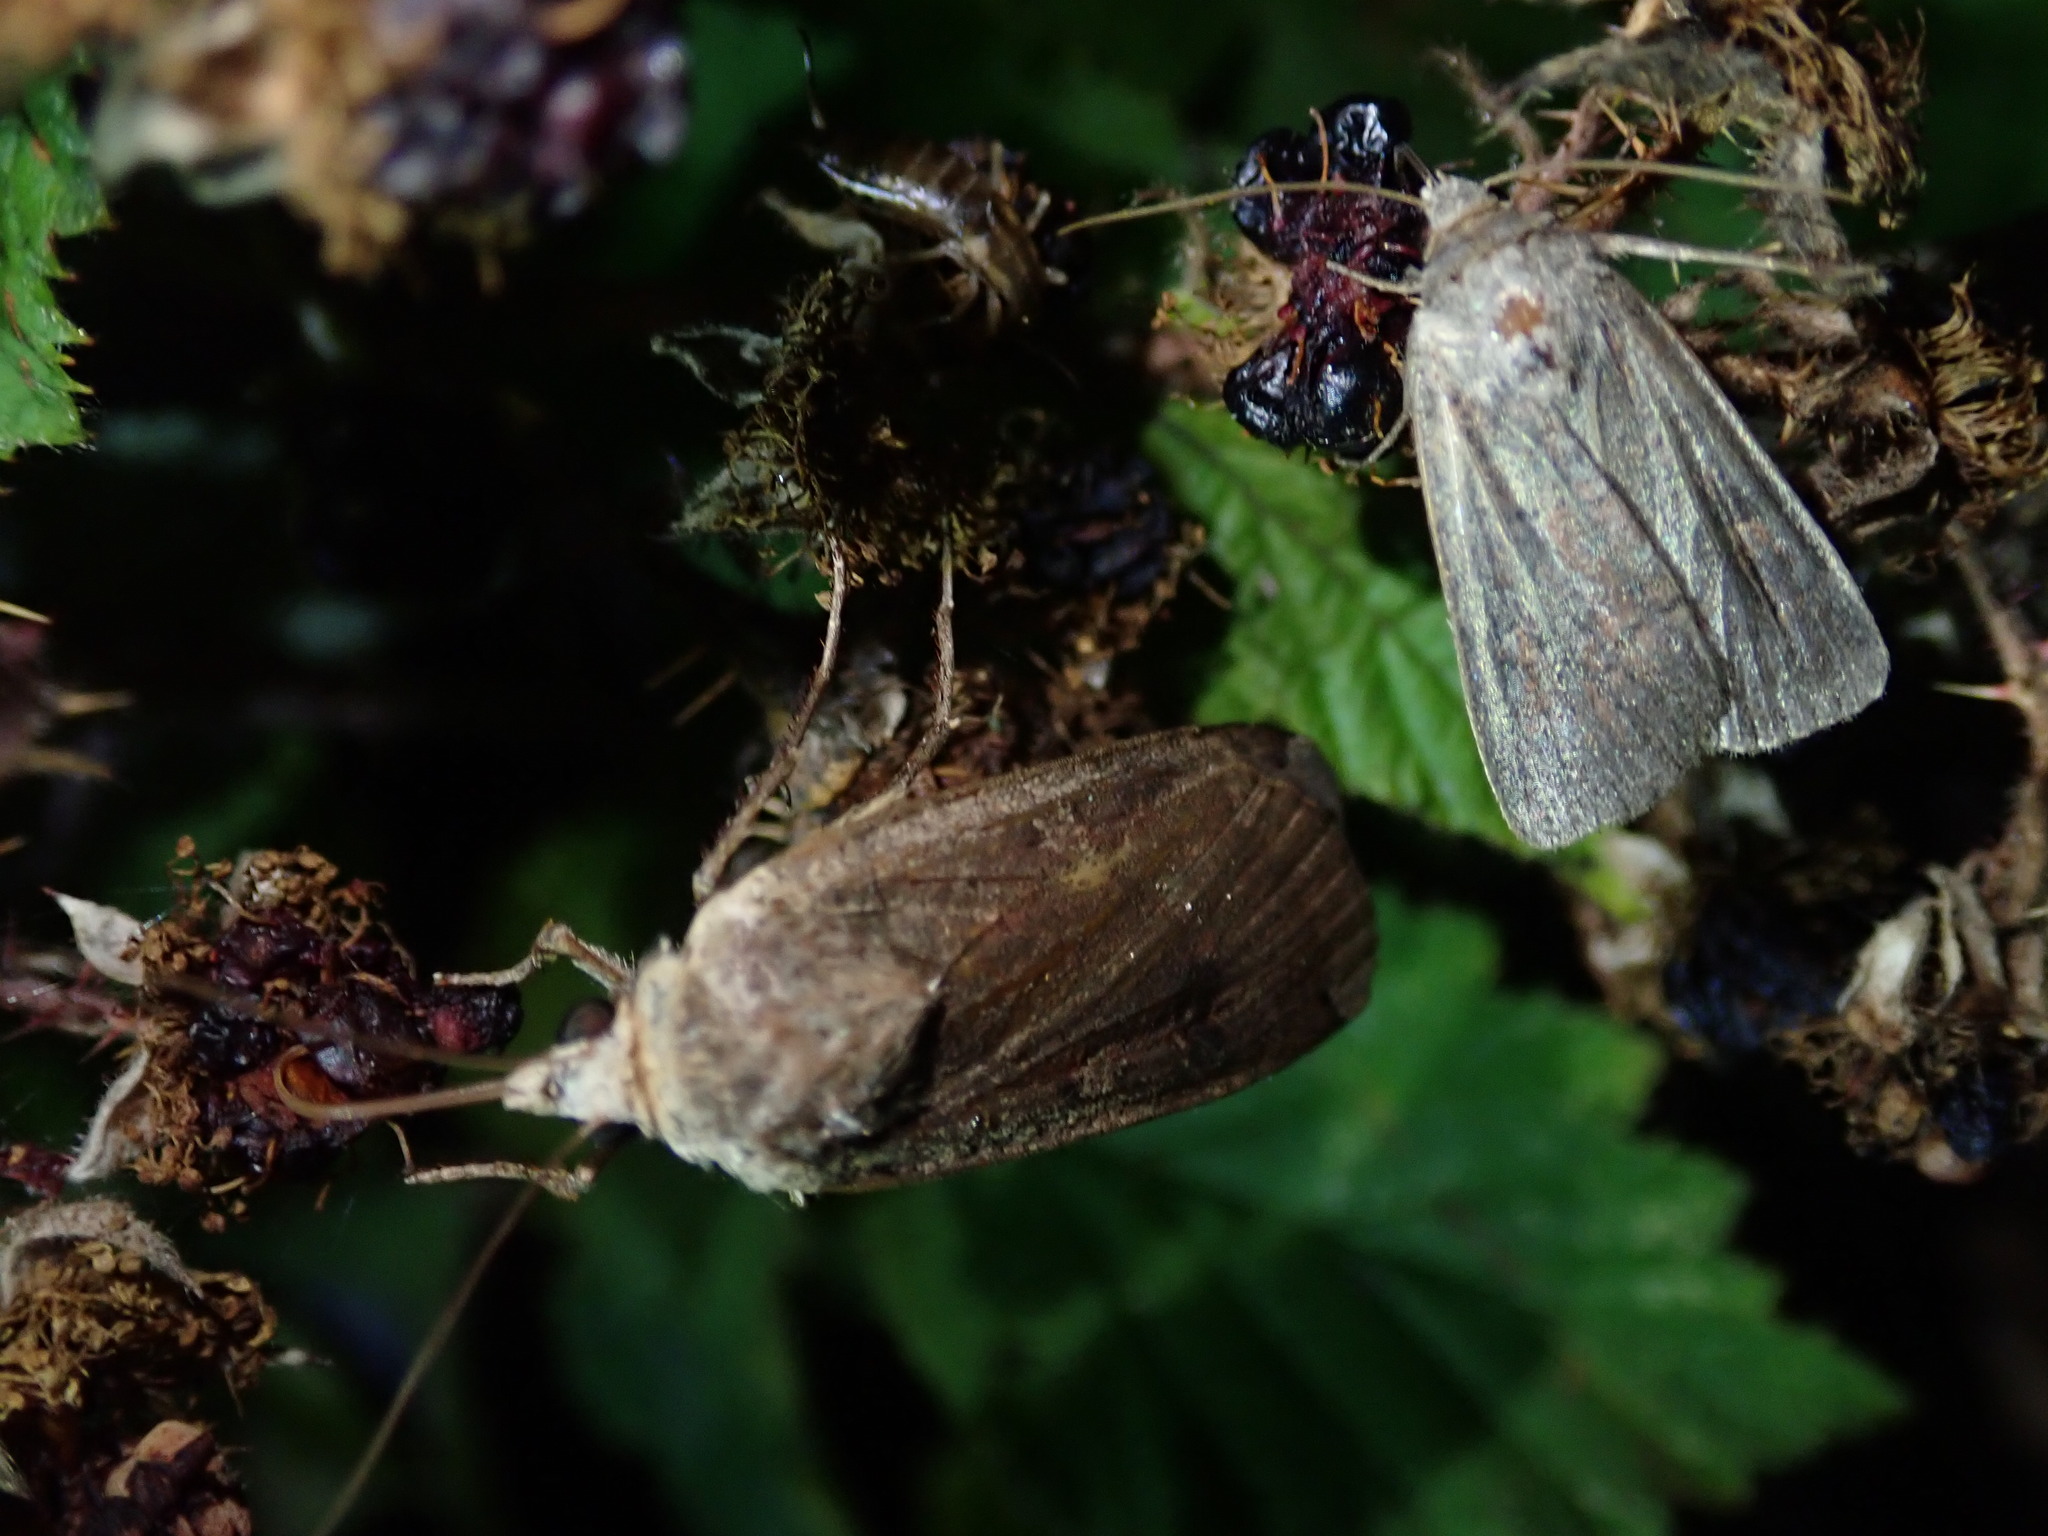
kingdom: Animalia
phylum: Arthropoda
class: Insecta
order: Lepidoptera
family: Noctuidae
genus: Noctua
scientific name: Noctua pronuba
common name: Large yellow underwing
